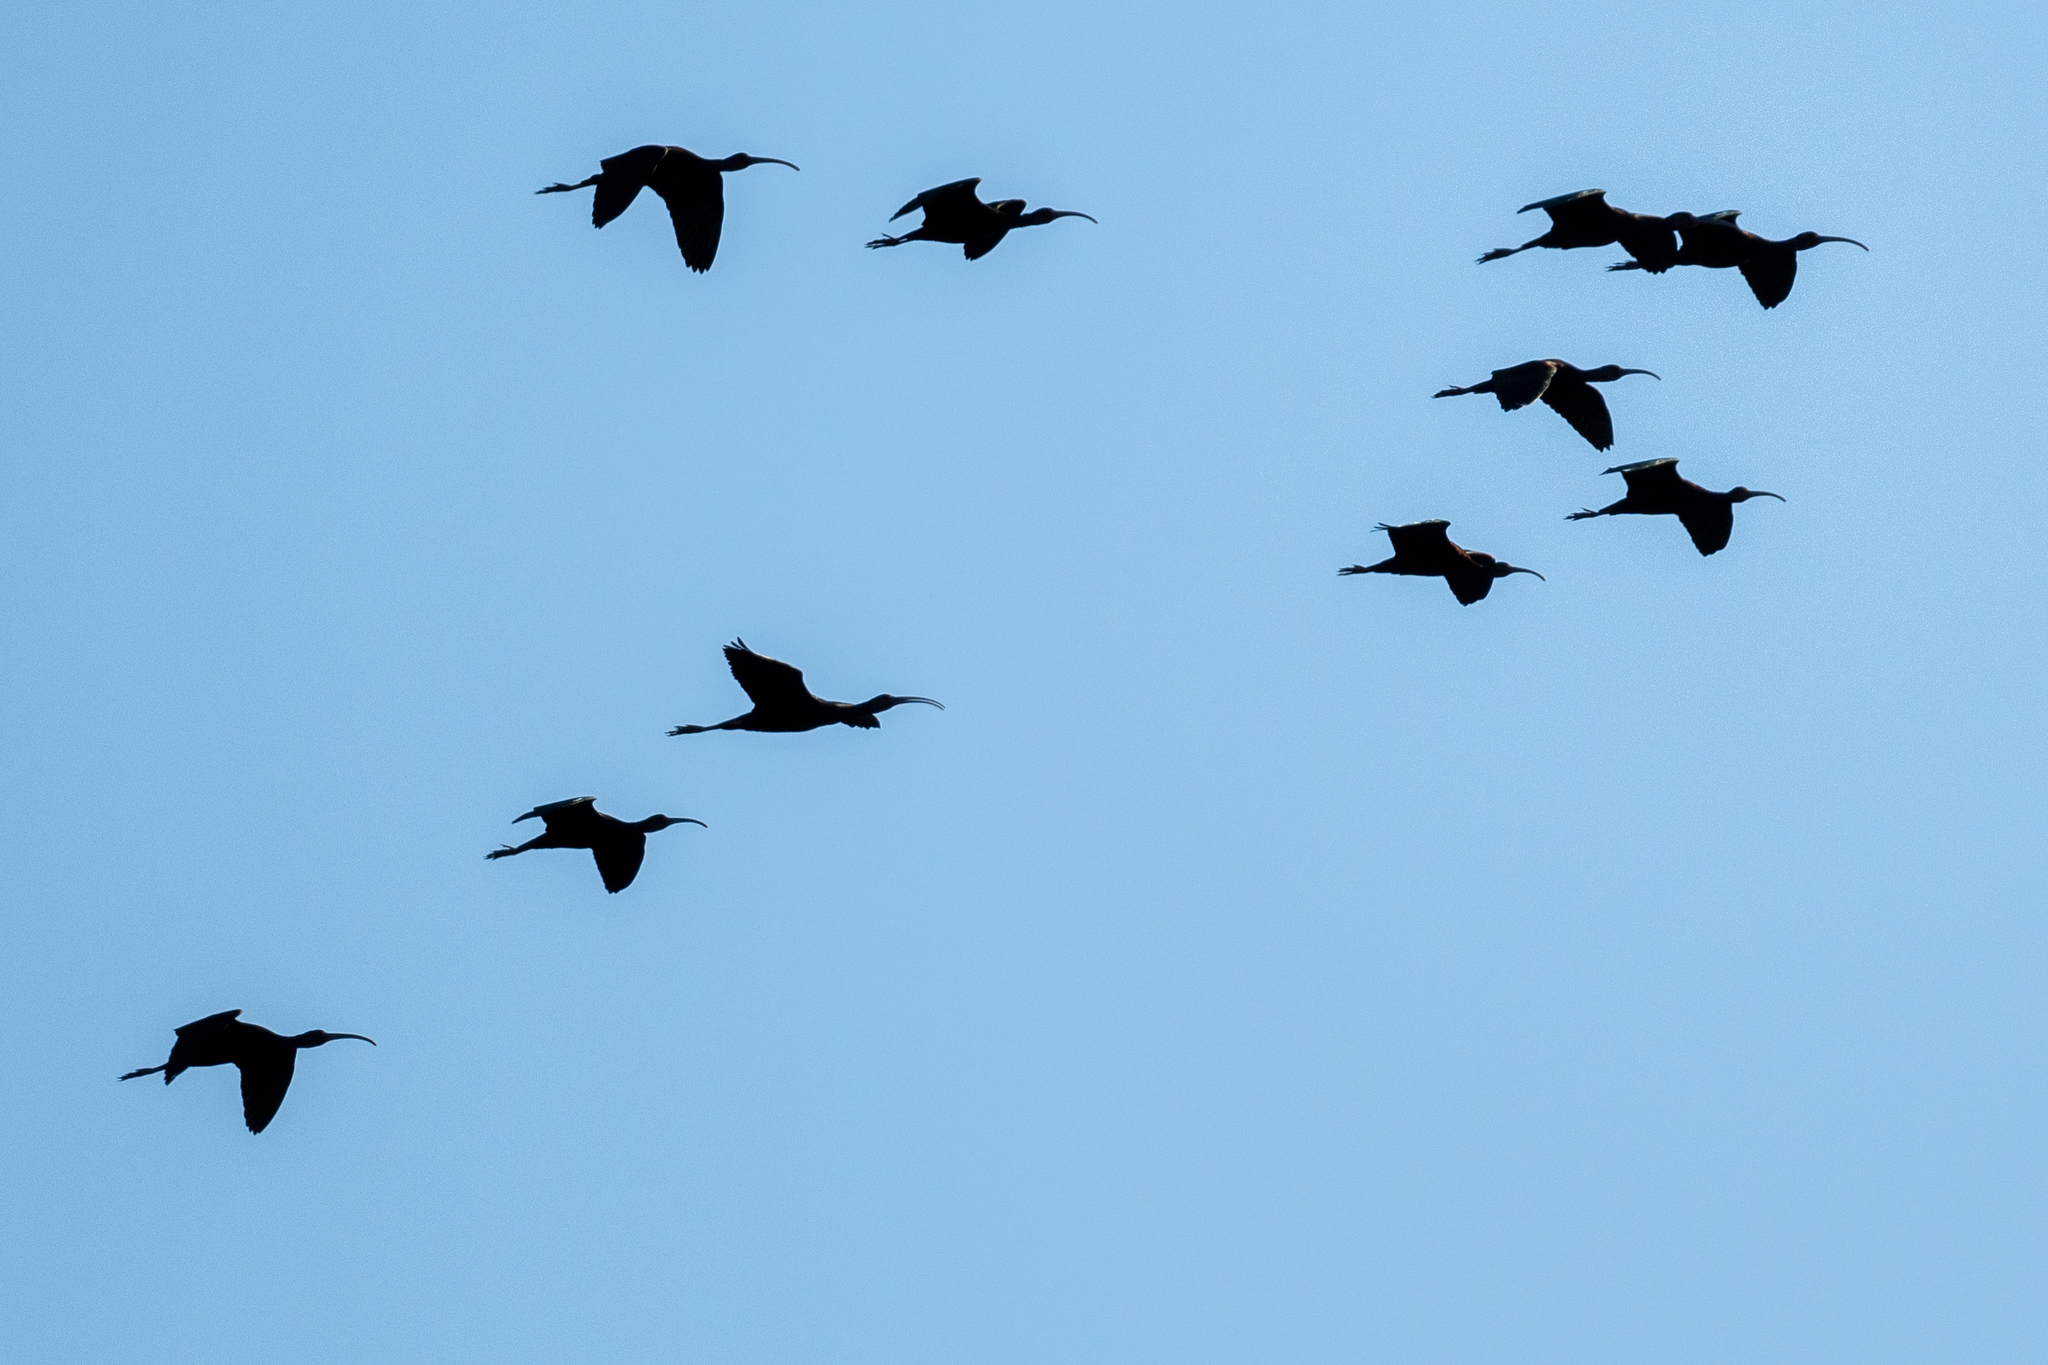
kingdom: Animalia
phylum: Chordata
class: Aves
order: Pelecaniformes
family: Threskiornithidae
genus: Plegadis
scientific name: Plegadis chihi
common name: White-faced ibis
